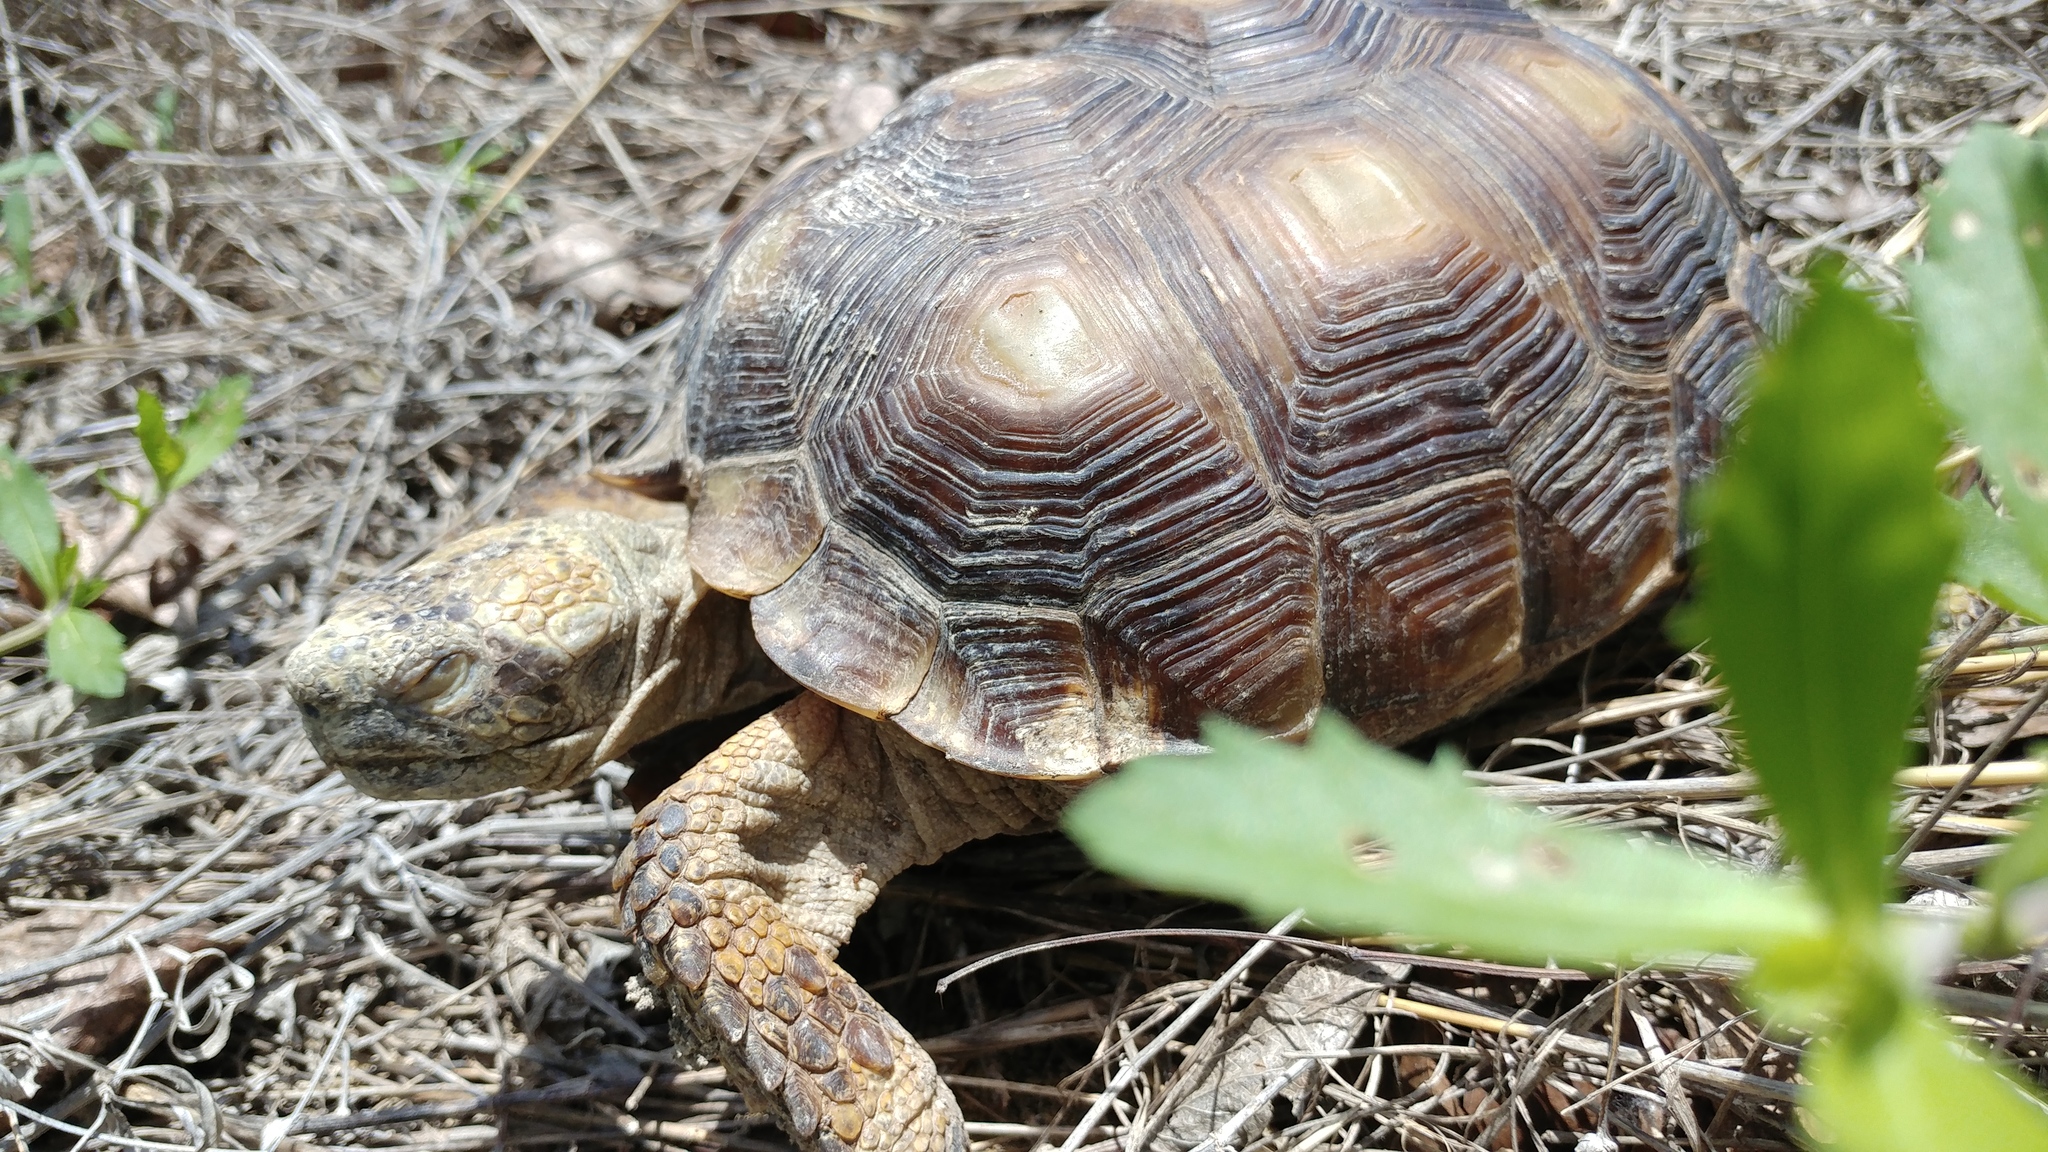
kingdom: Animalia
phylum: Chordata
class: Testudines
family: Testudinidae
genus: Gopherus
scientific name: Gopherus berlandieri
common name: Texas (gopher )tortoise
